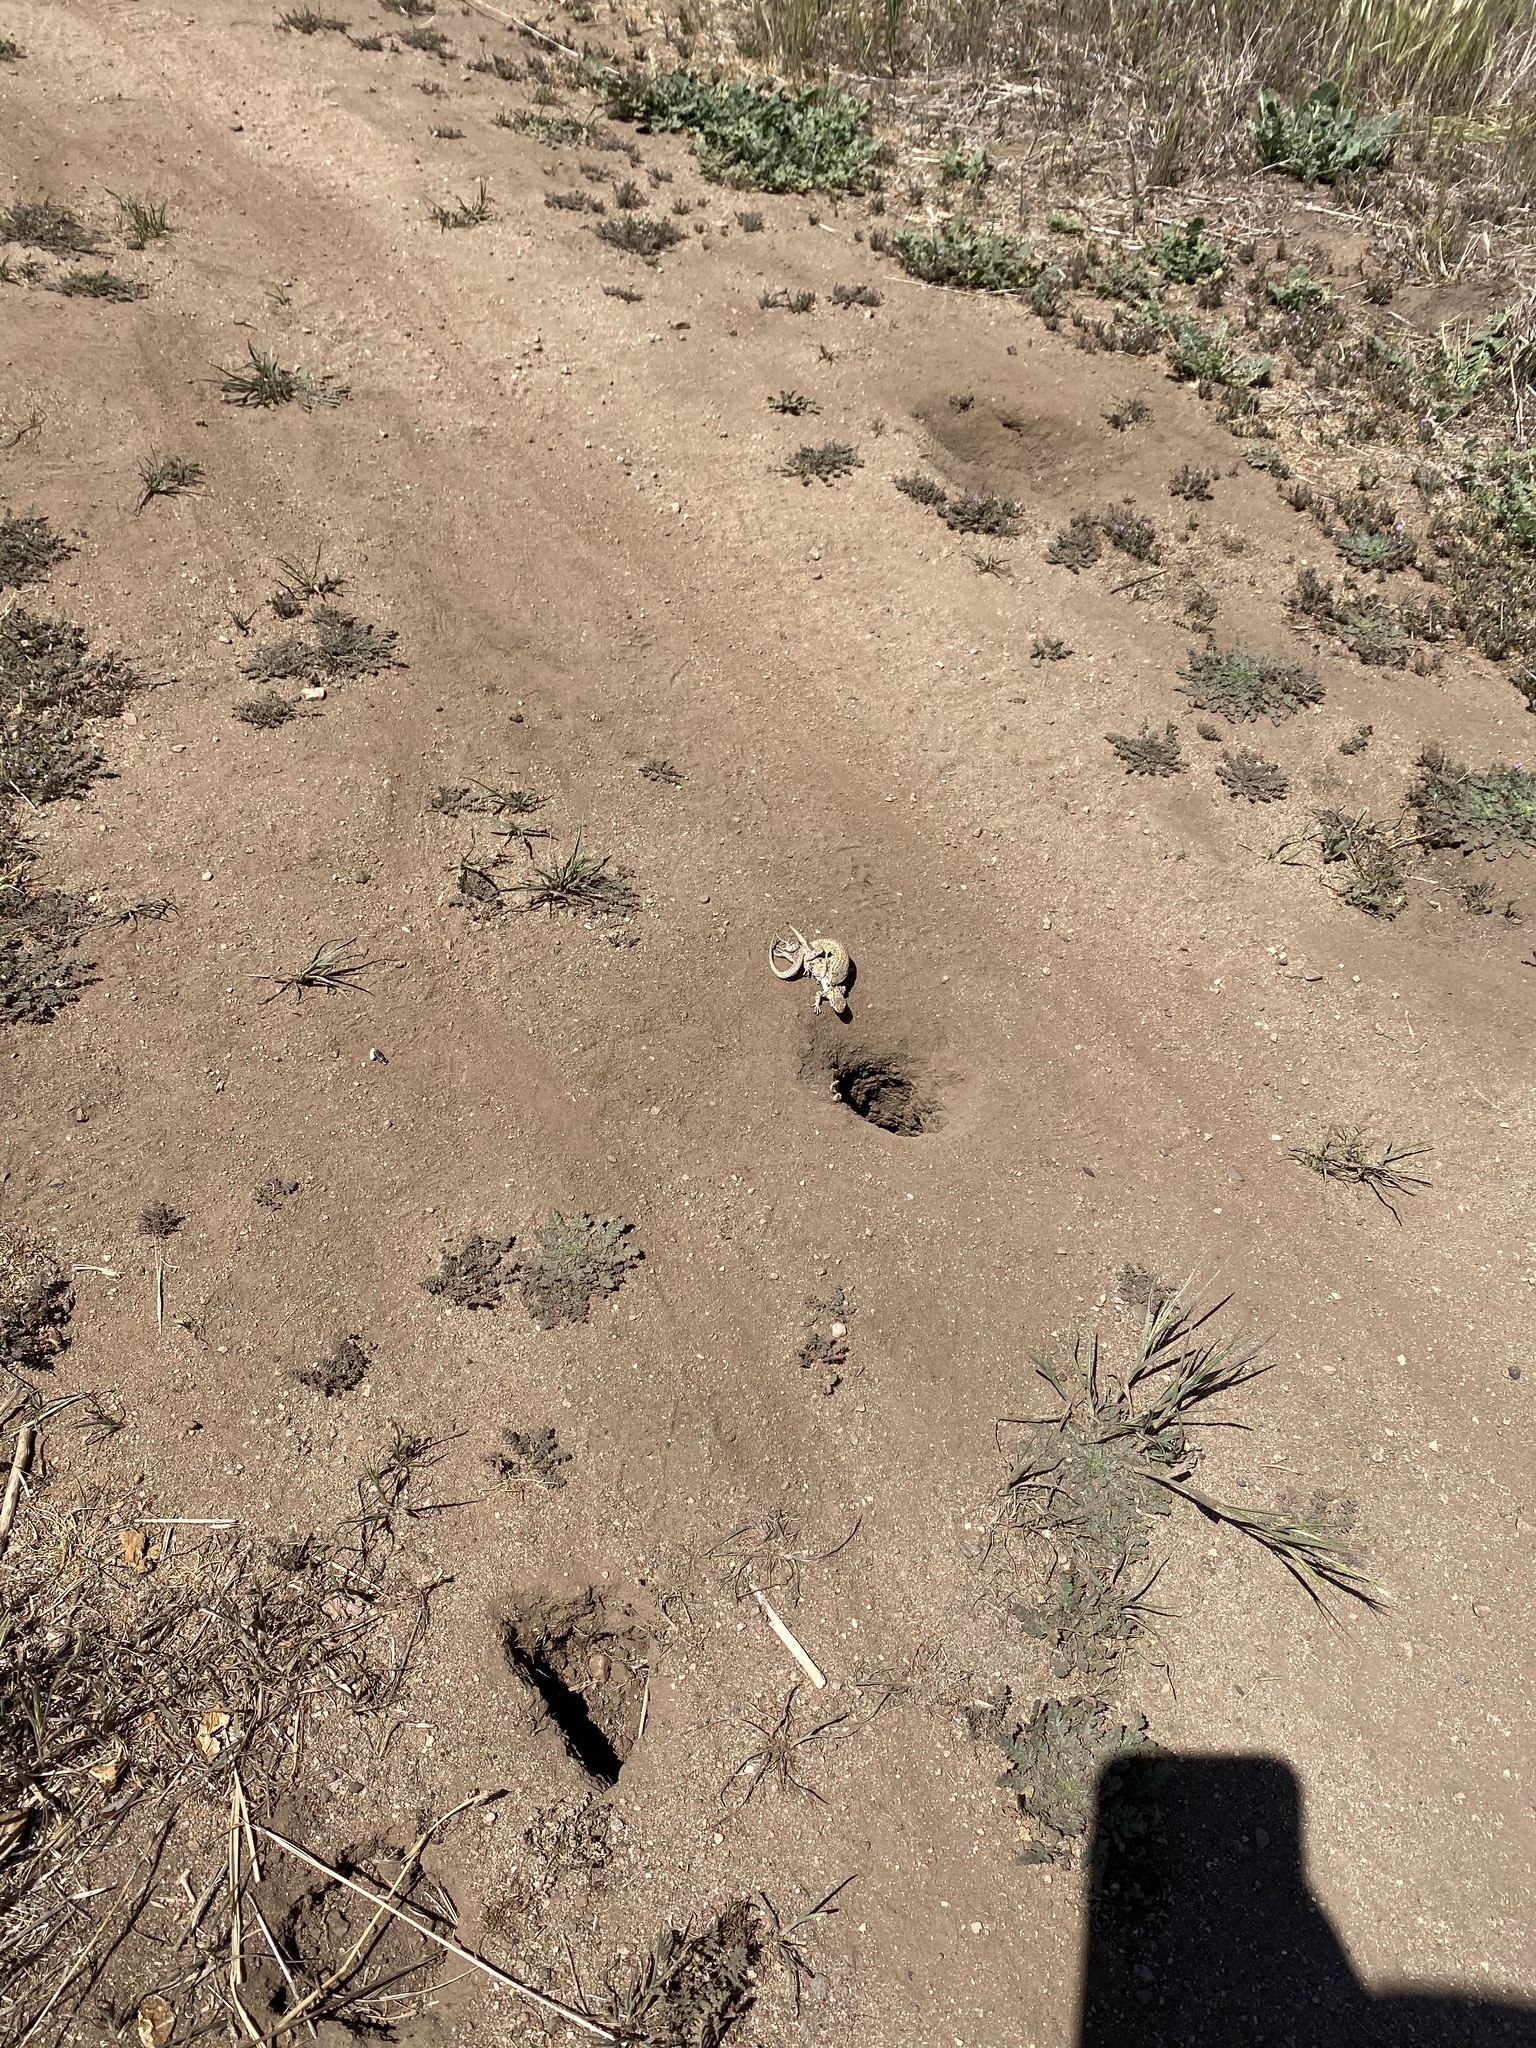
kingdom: Animalia
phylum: Chordata
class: Squamata
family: Phrynosomatidae
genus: Uta
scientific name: Uta stansburiana
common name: Side-blotched lizard
